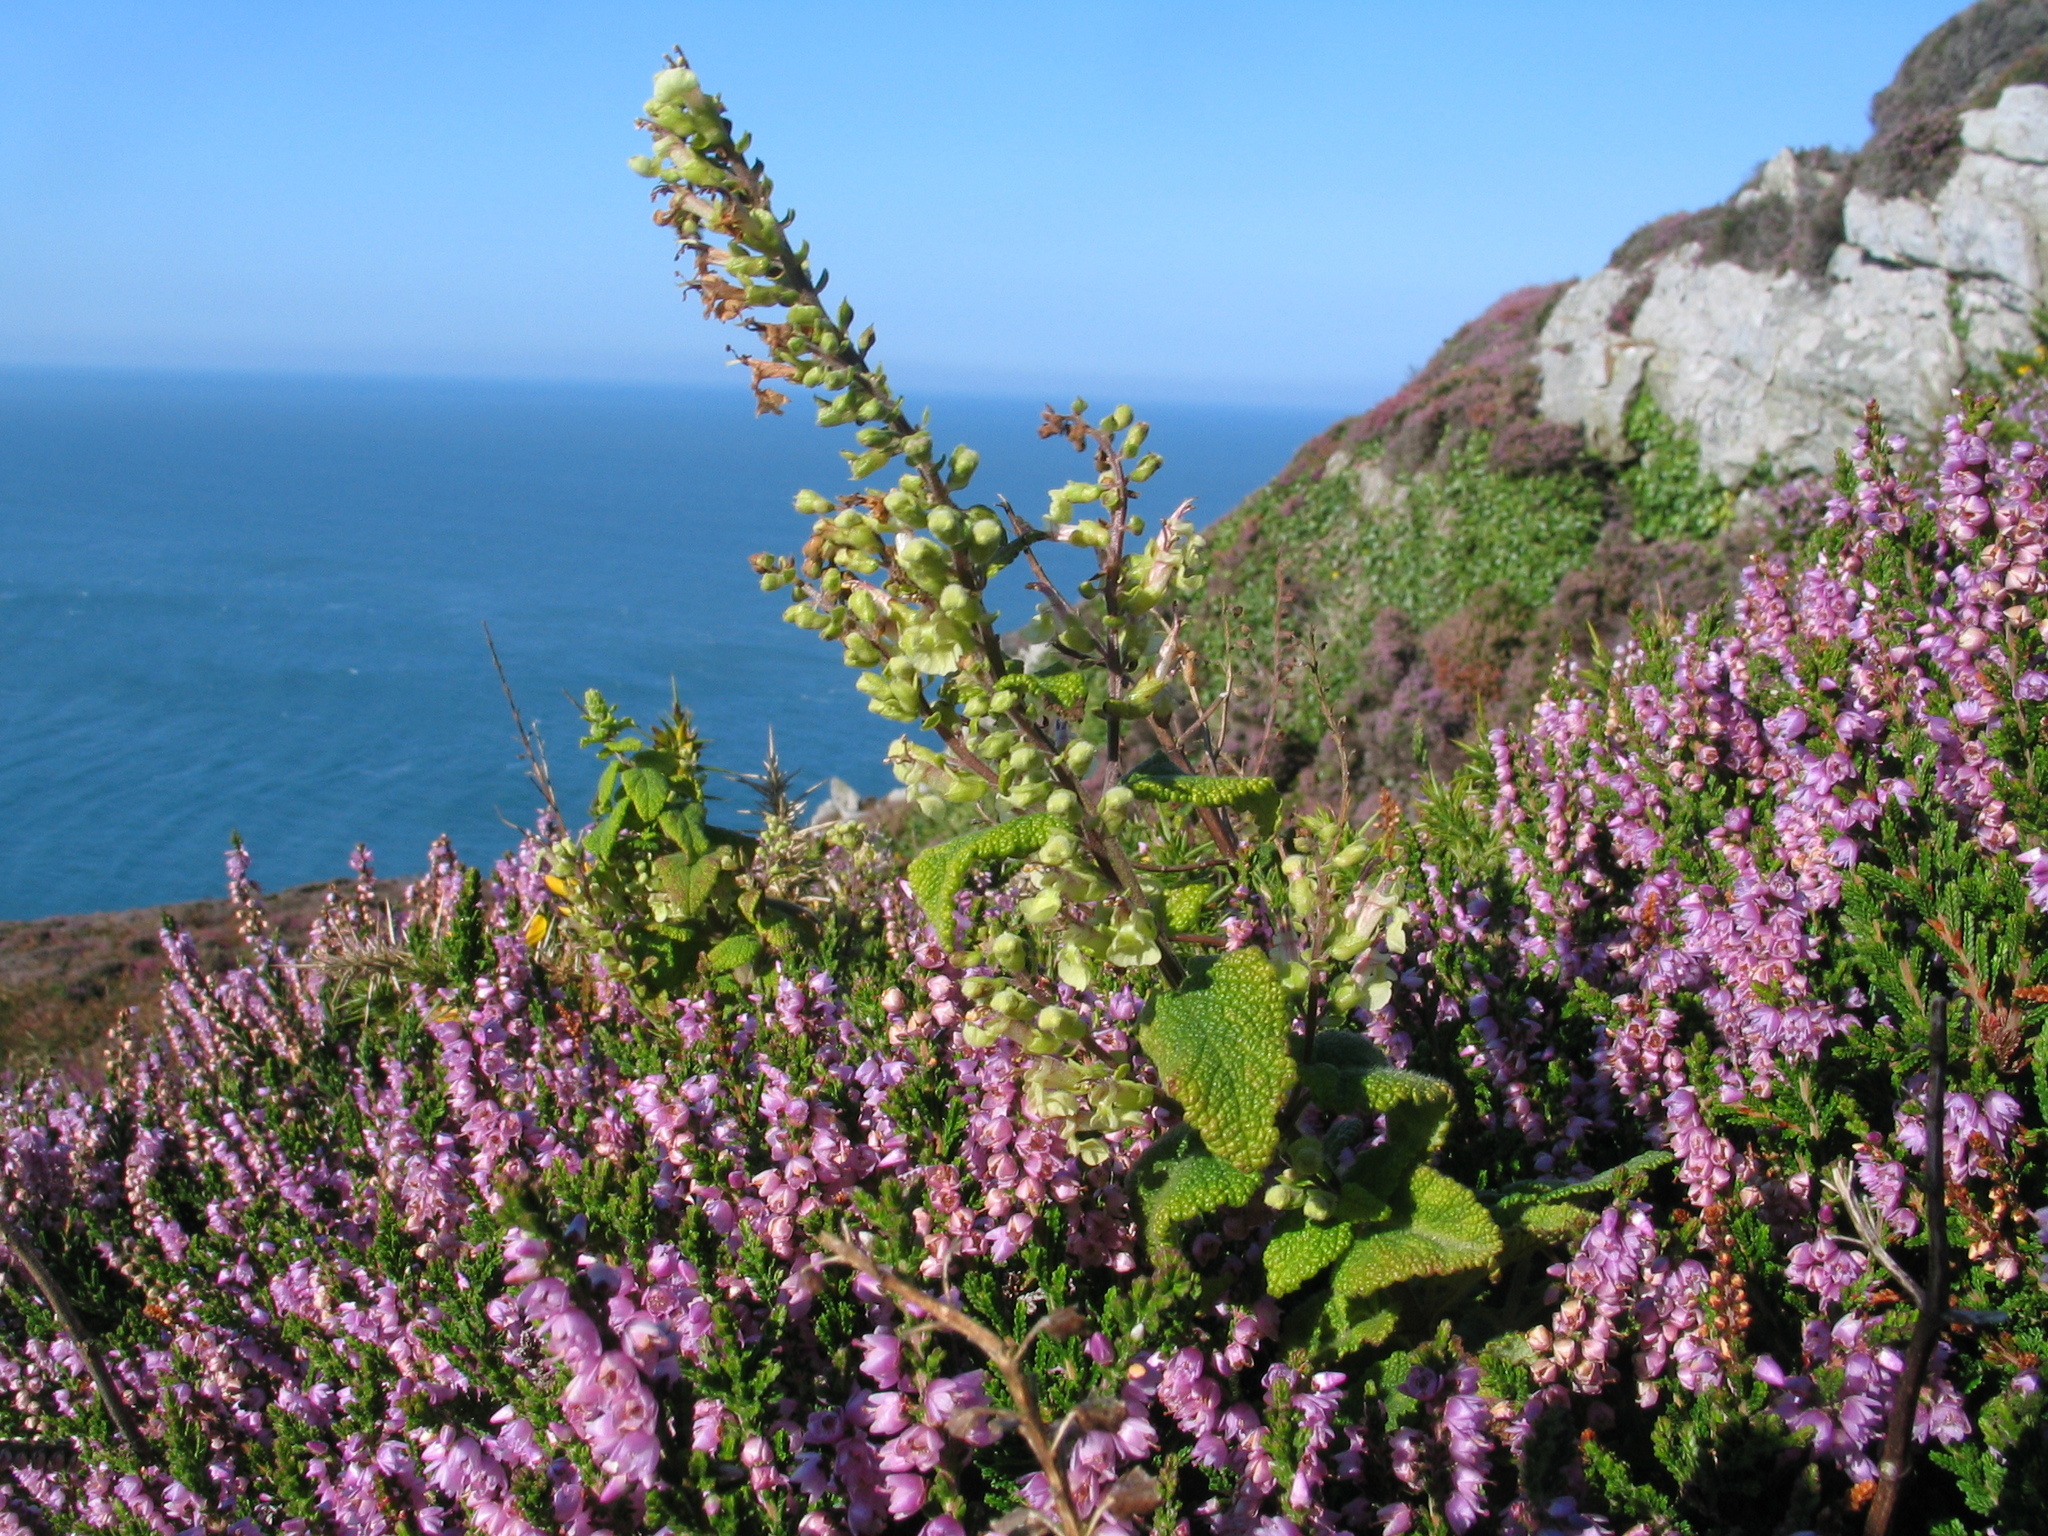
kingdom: Plantae
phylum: Tracheophyta
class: Magnoliopsida
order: Lamiales
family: Lamiaceae
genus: Teucrium
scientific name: Teucrium scorodonia
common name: Woodland germander
